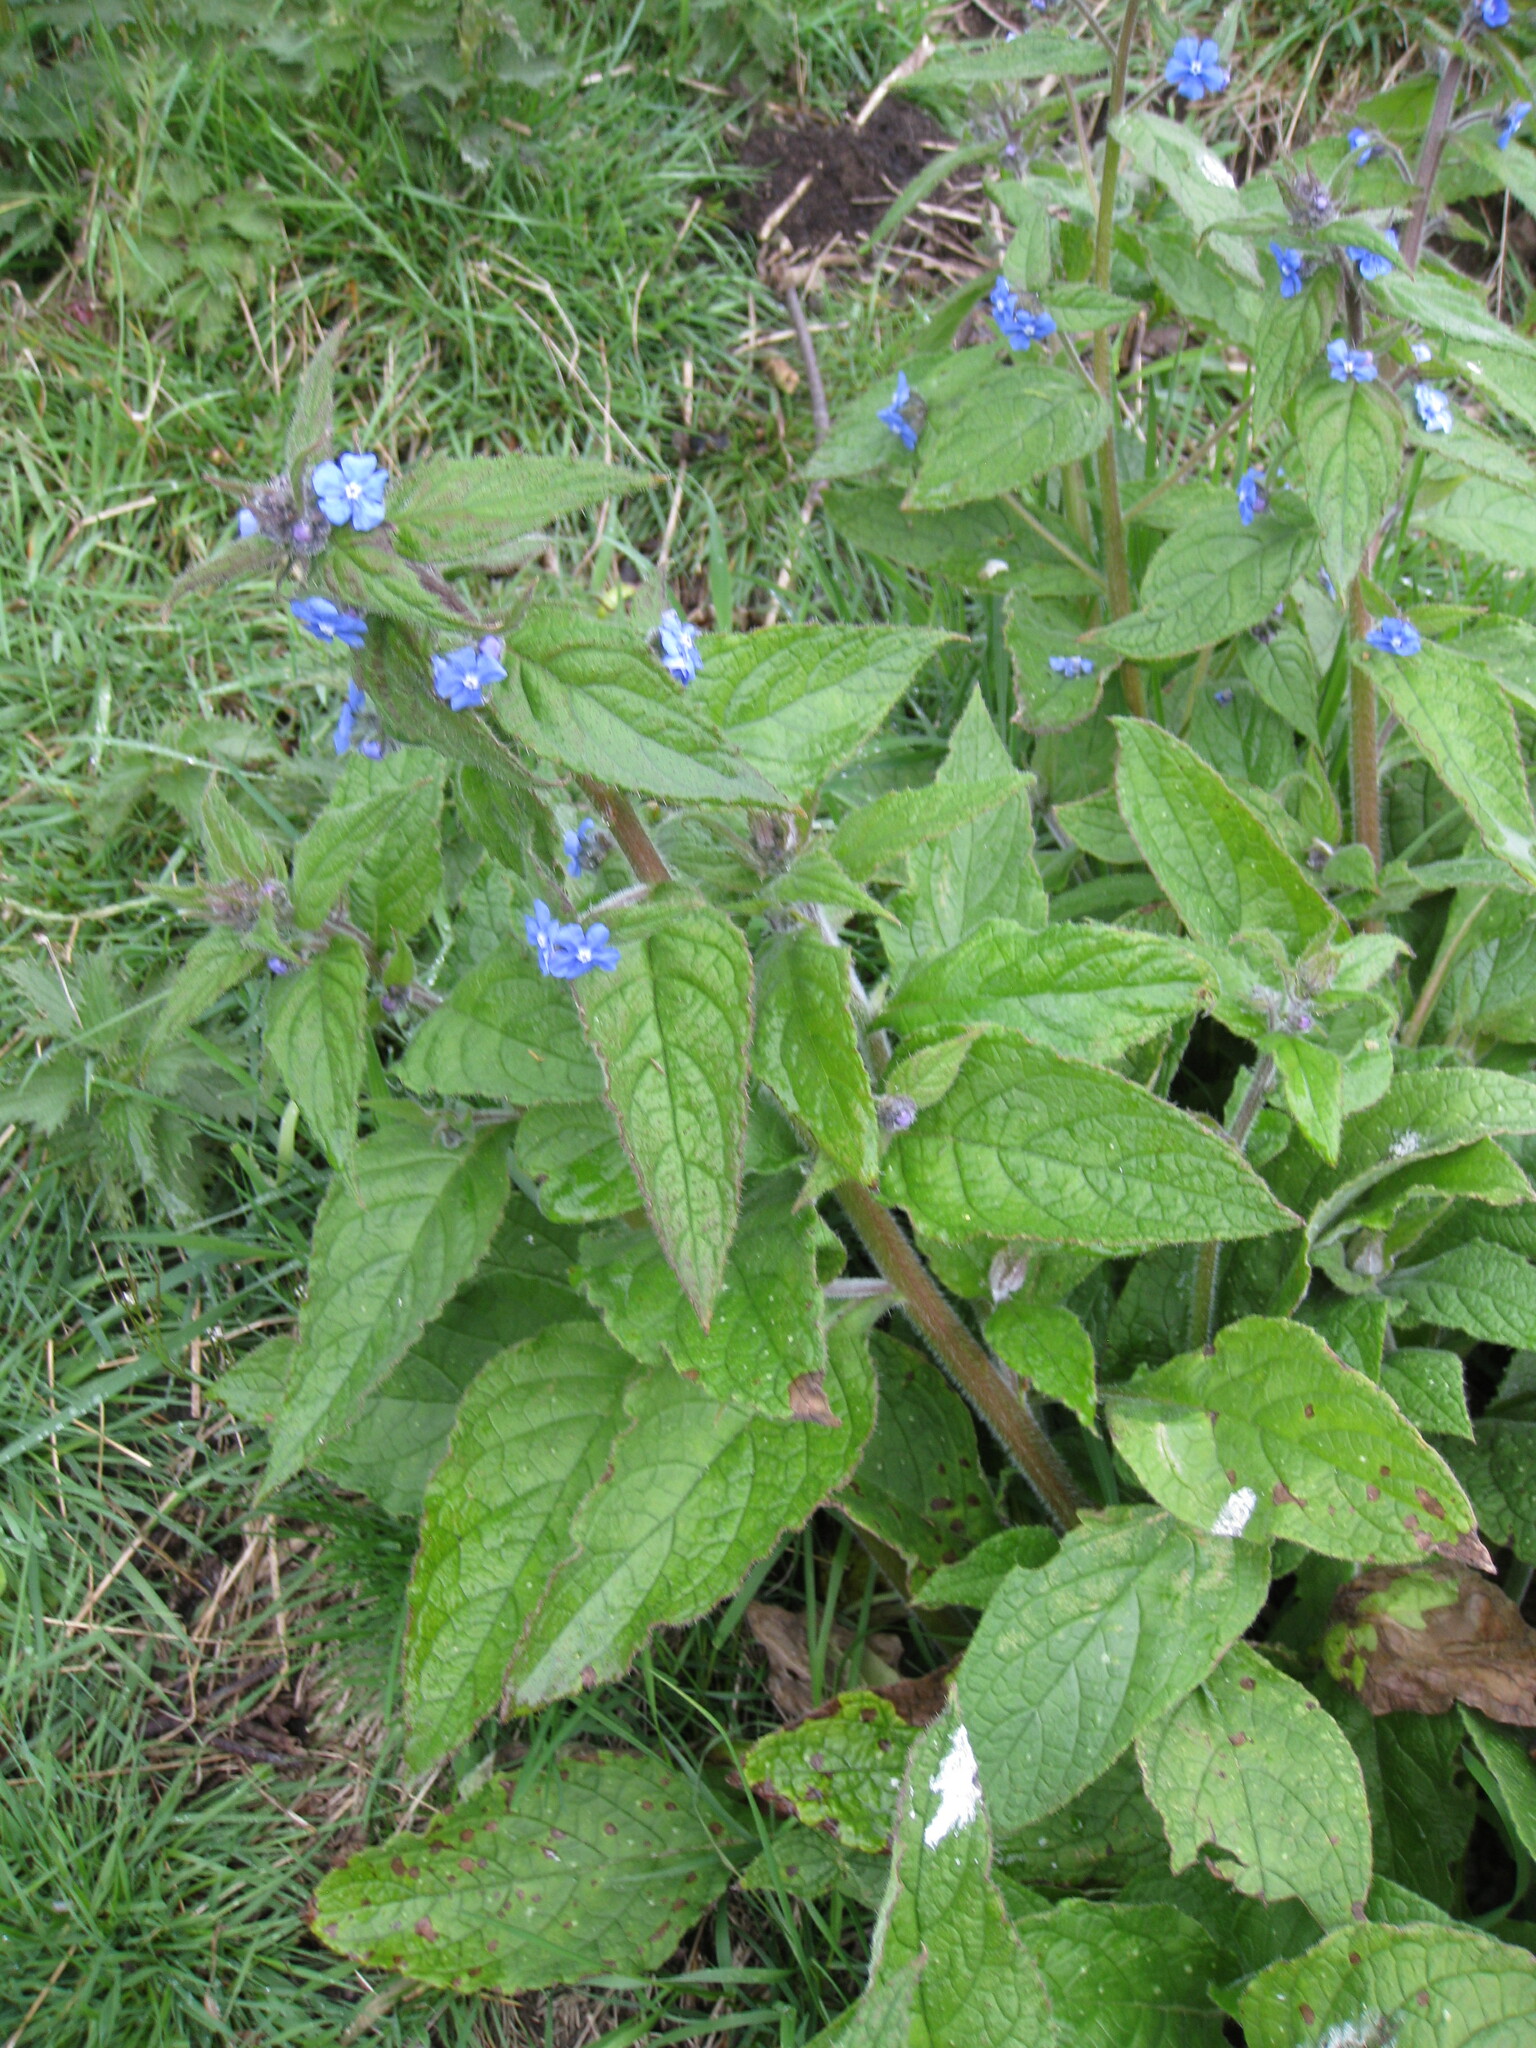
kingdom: Plantae
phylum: Tracheophyta
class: Magnoliopsida
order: Boraginales
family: Boraginaceae
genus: Pentaglottis
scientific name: Pentaglottis sempervirens
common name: Green alkanet
